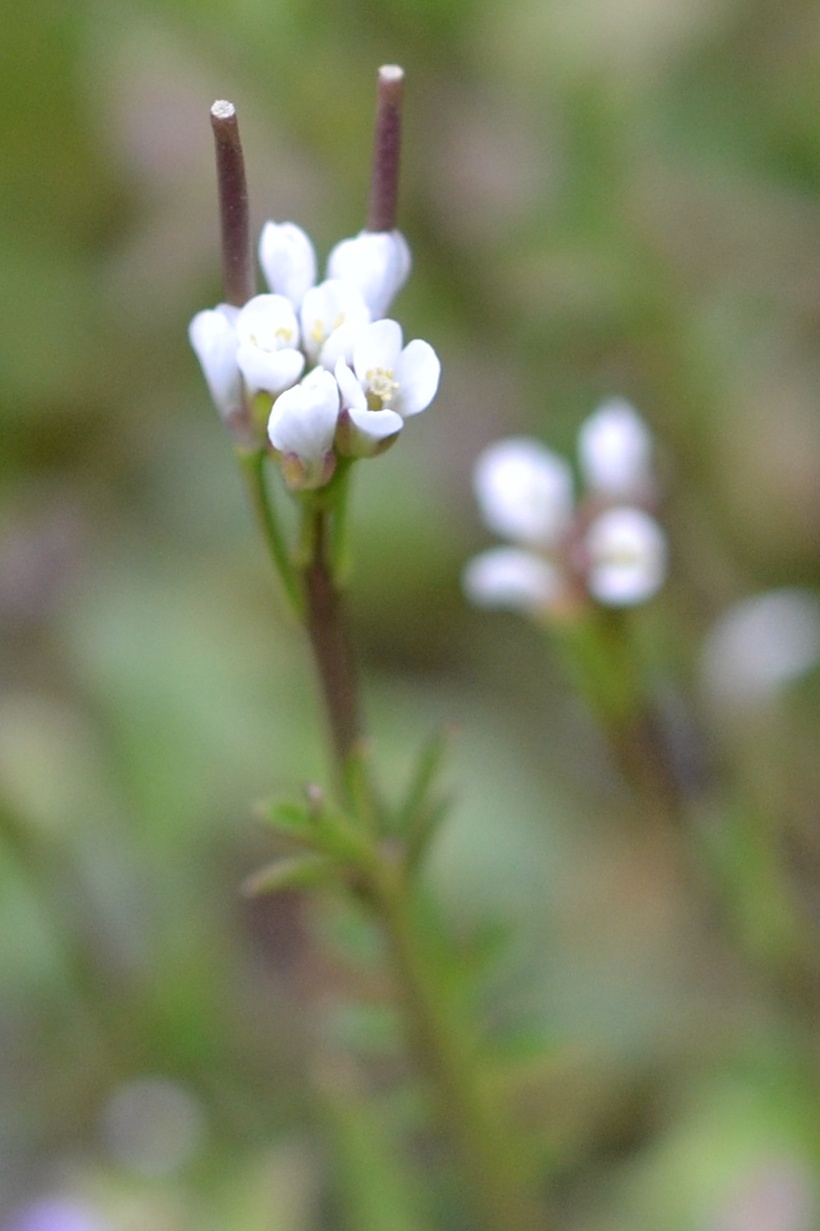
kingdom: Plantae
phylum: Tracheophyta
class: Magnoliopsida
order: Brassicales
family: Brassicaceae
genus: Cardamine
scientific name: Cardamine hirsuta
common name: Hairy bittercress
